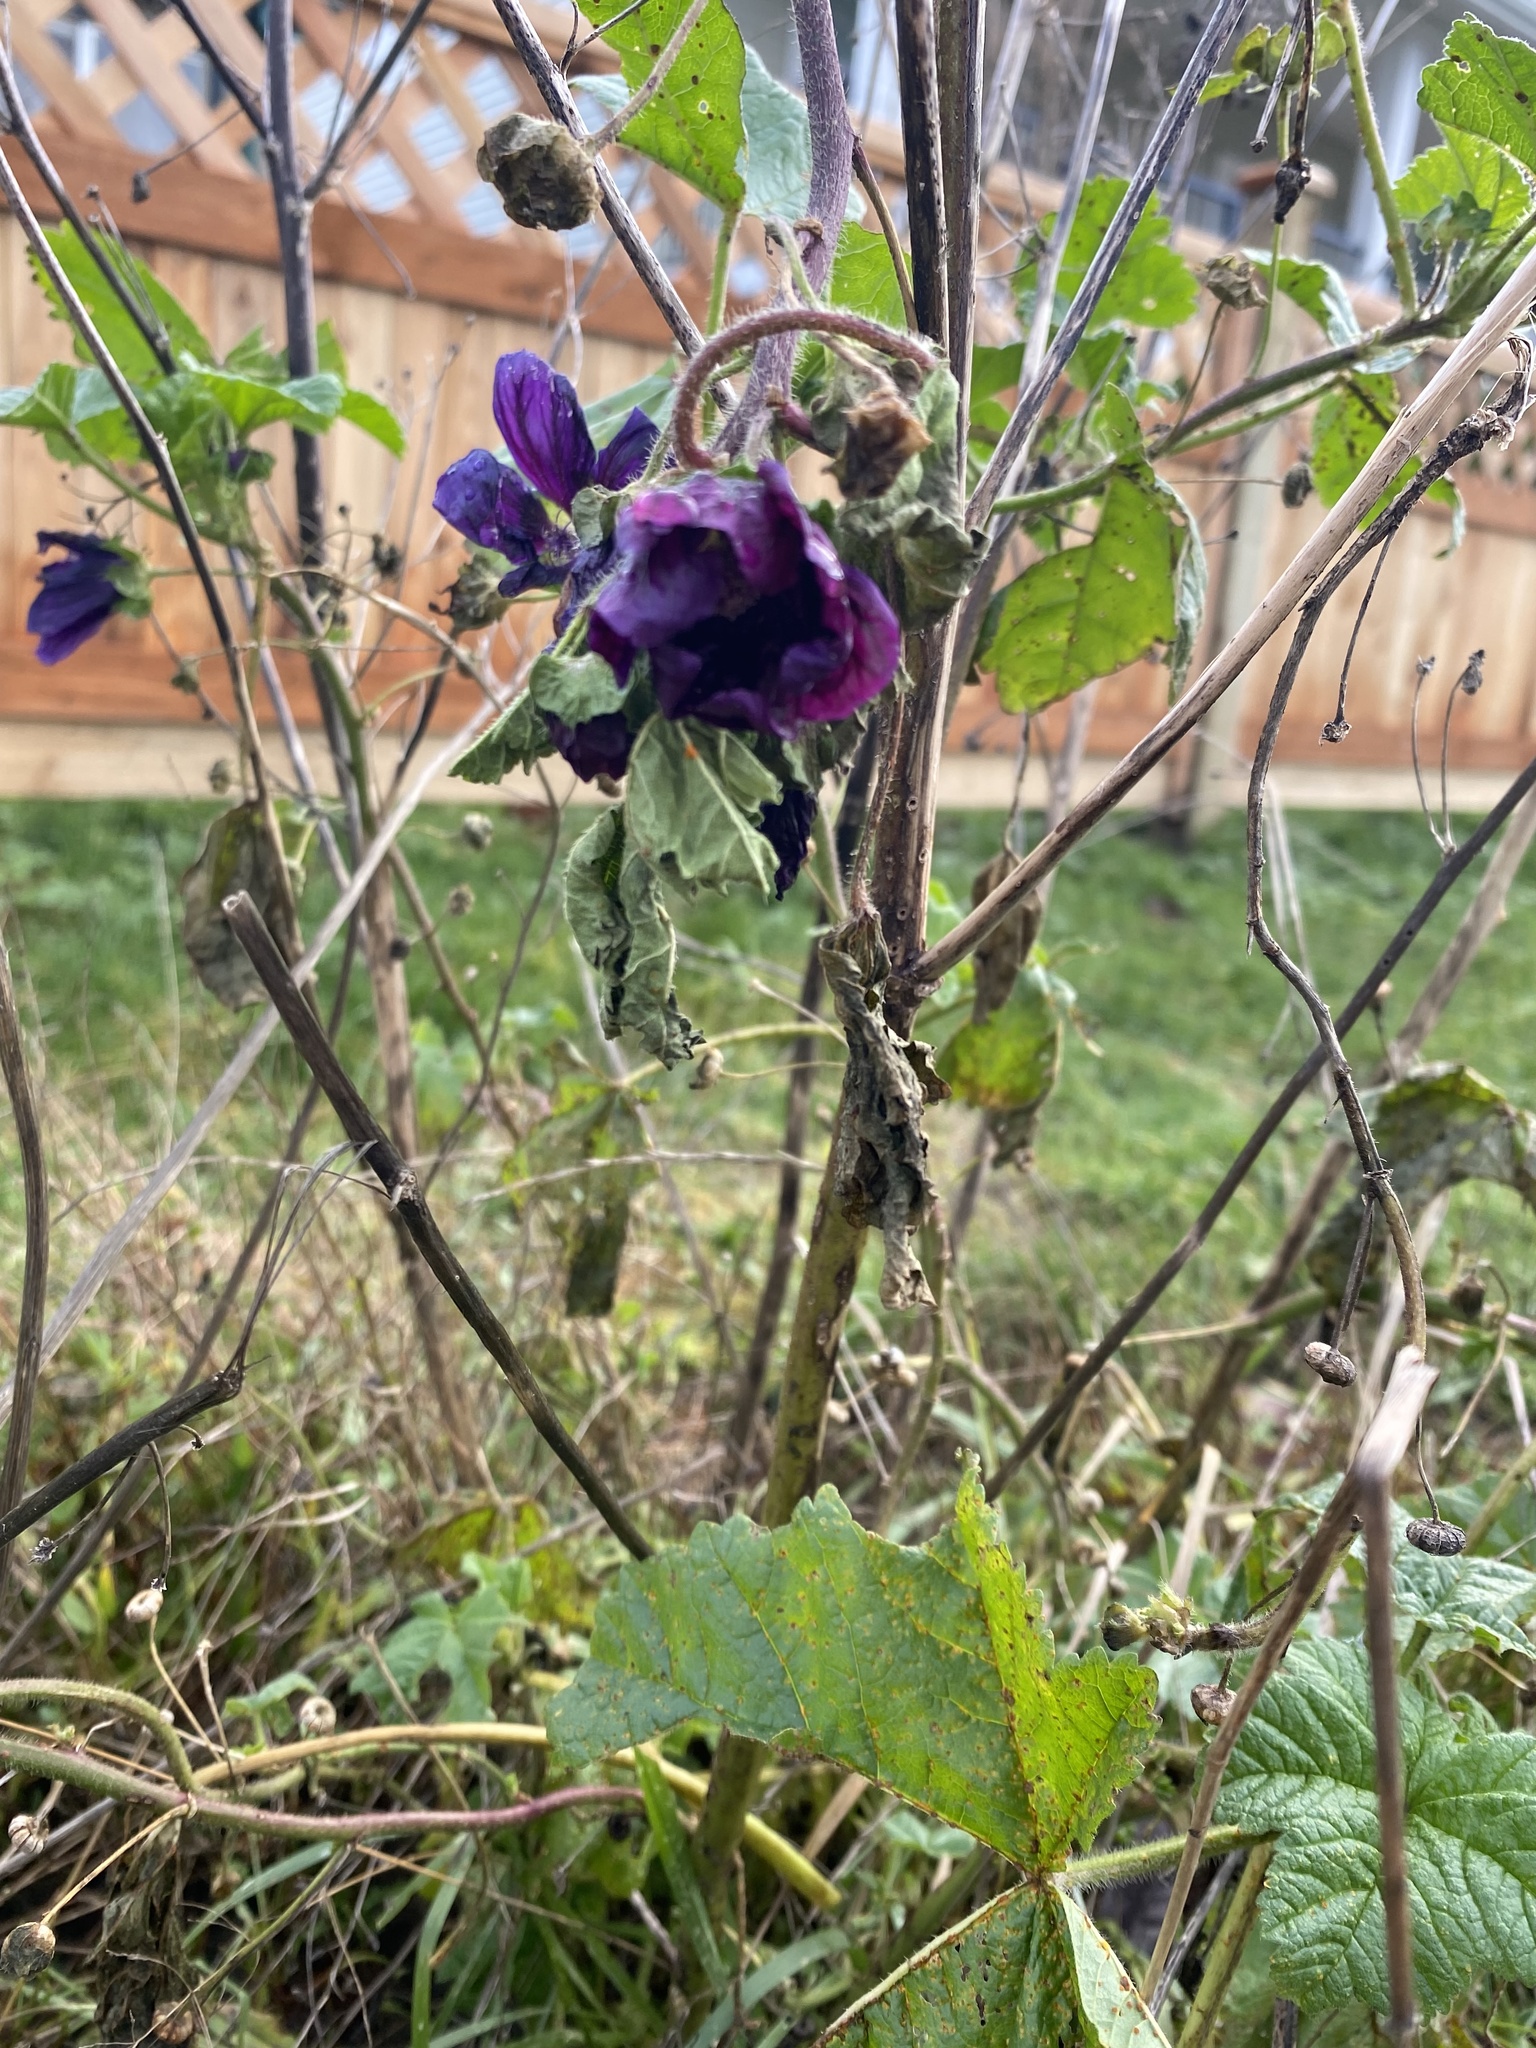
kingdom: Plantae
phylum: Tracheophyta
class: Magnoliopsida
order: Malvales
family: Malvaceae
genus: Malva
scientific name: Malva sylvestris
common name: Common mallow
